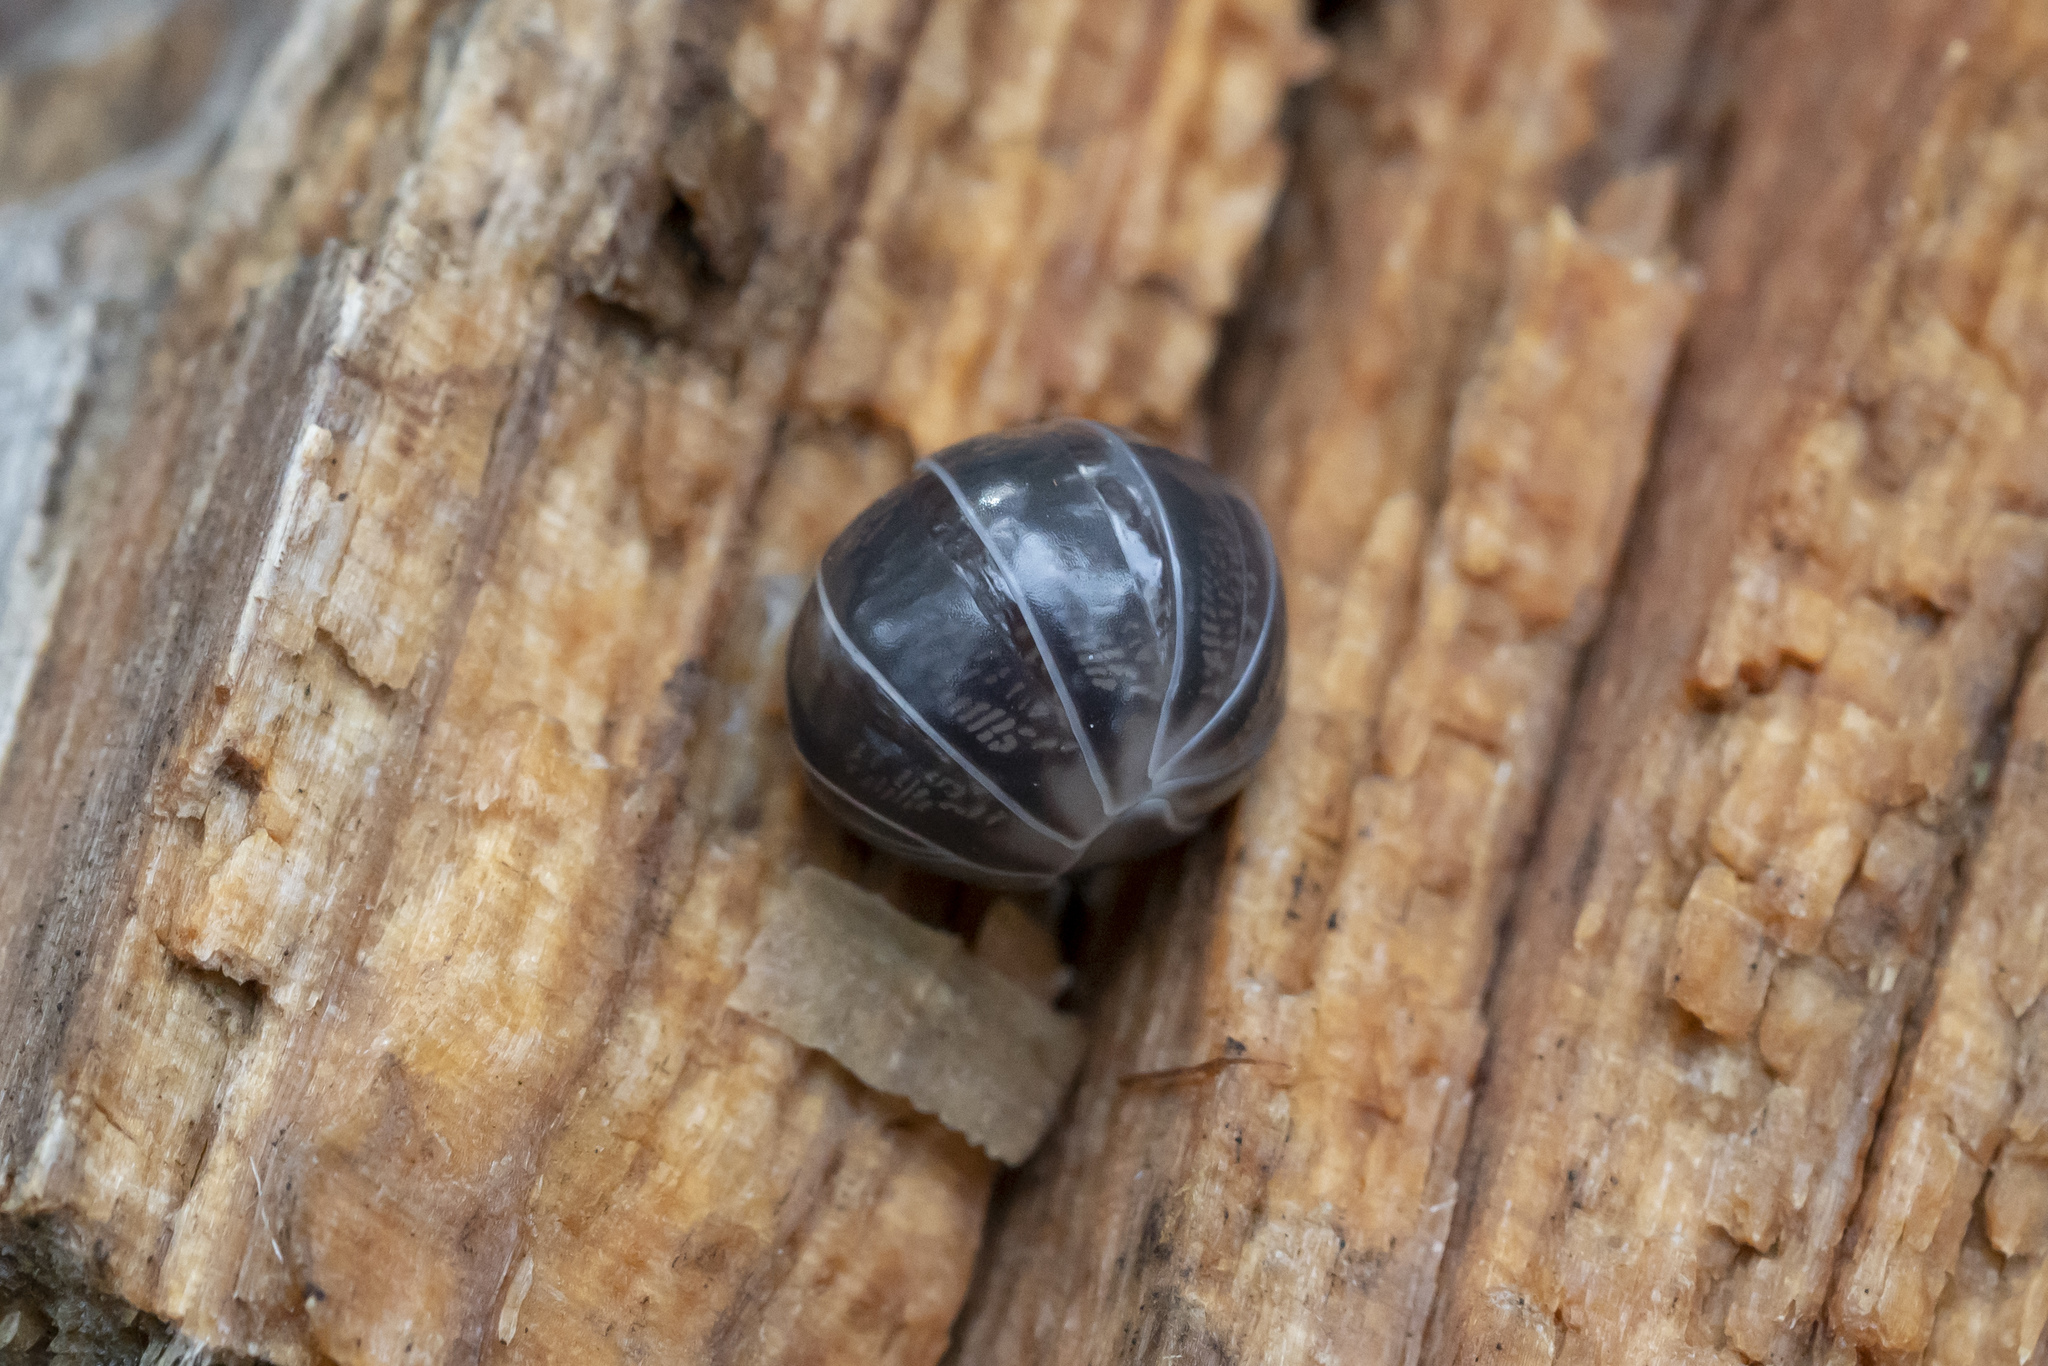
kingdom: Animalia
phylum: Arthropoda
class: Malacostraca
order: Isopoda
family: Armadillidiidae
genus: Schizidium
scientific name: Schizidium oertzeni
